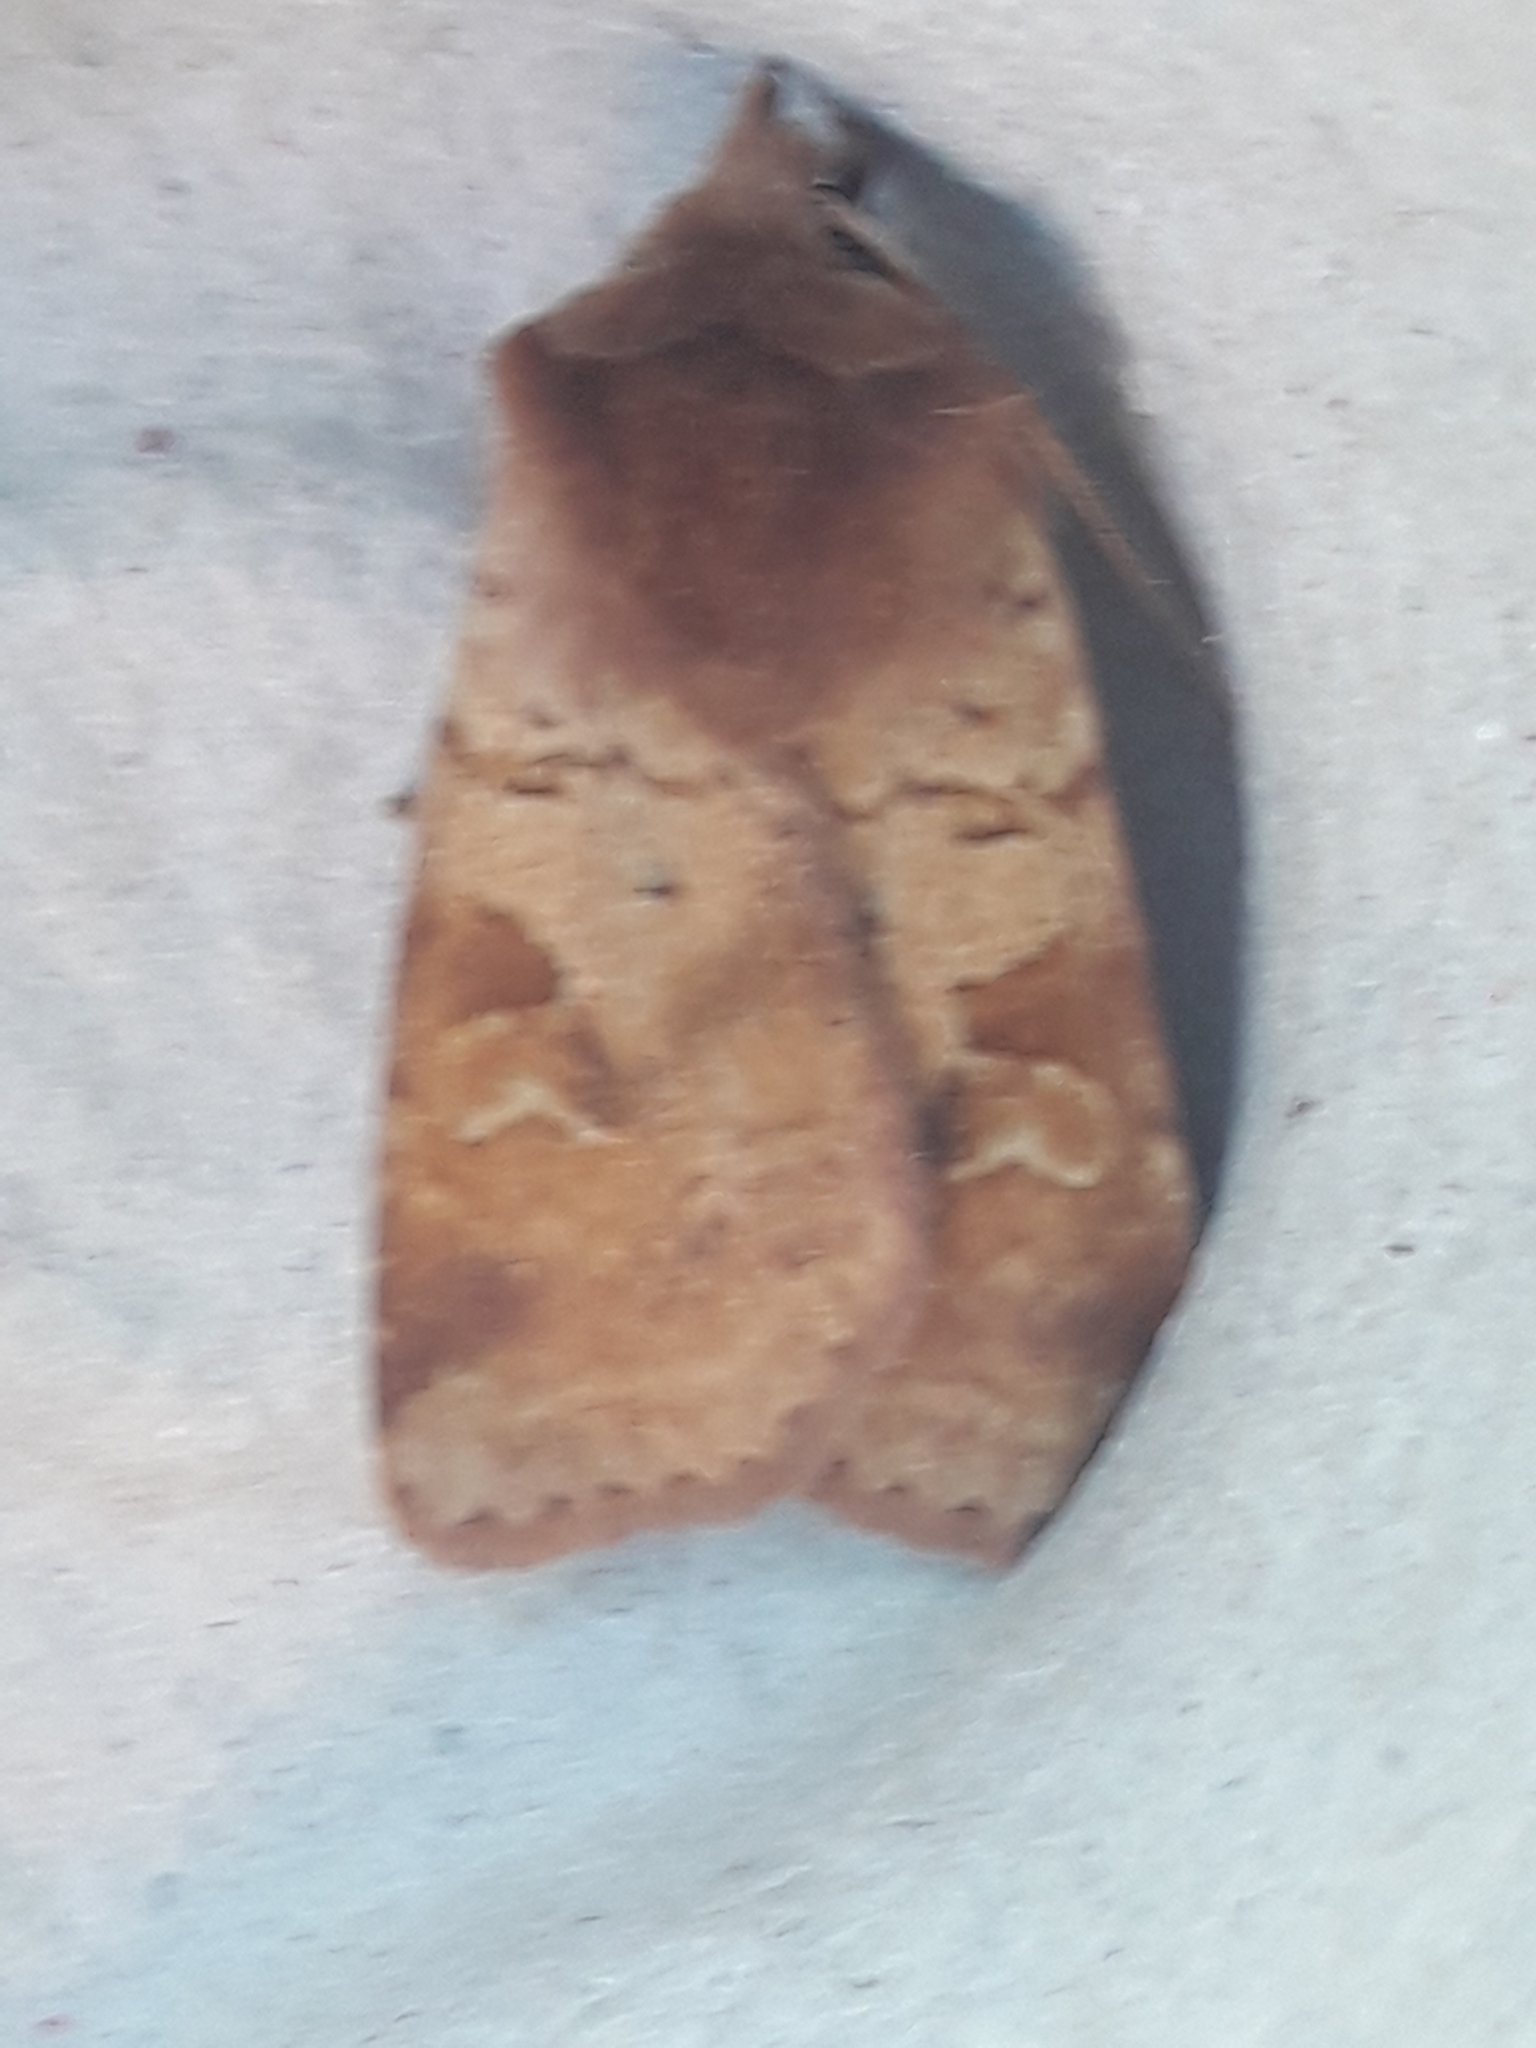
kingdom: Animalia
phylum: Arthropoda
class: Insecta
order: Lepidoptera
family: Noctuidae
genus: Diarsia
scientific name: Diarsia mendica
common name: Ingrailed clay
